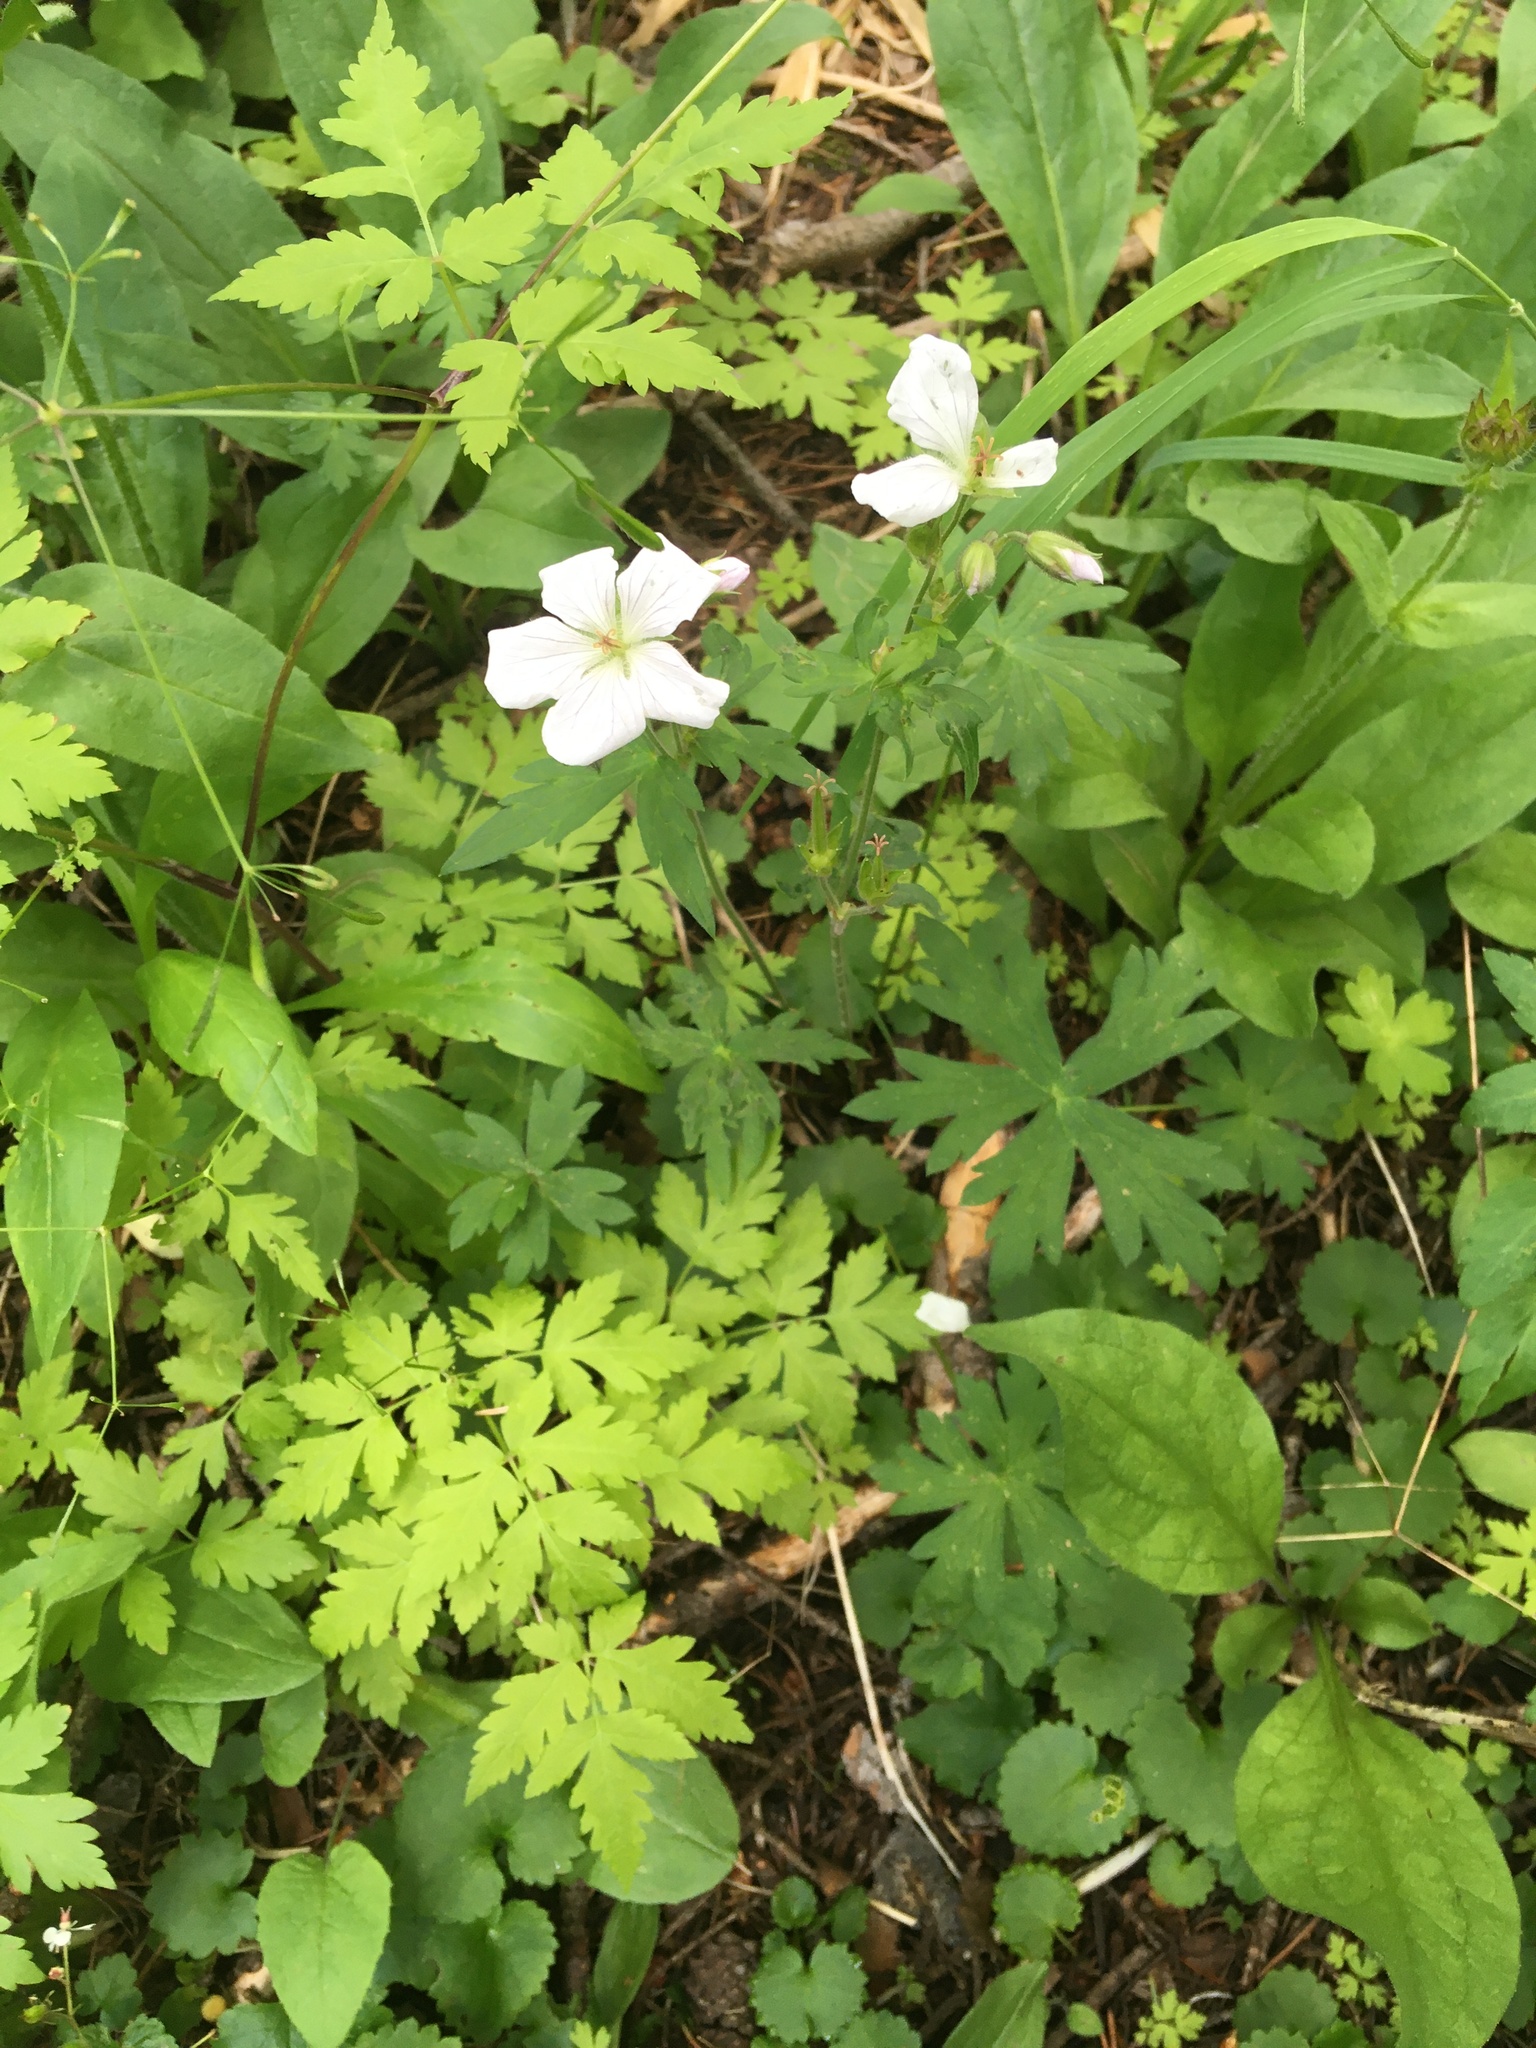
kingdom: Plantae
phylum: Tracheophyta
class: Magnoliopsida
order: Geraniales
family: Geraniaceae
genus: Geranium
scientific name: Geranium richardsonii
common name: Richardson's crane's-bill
